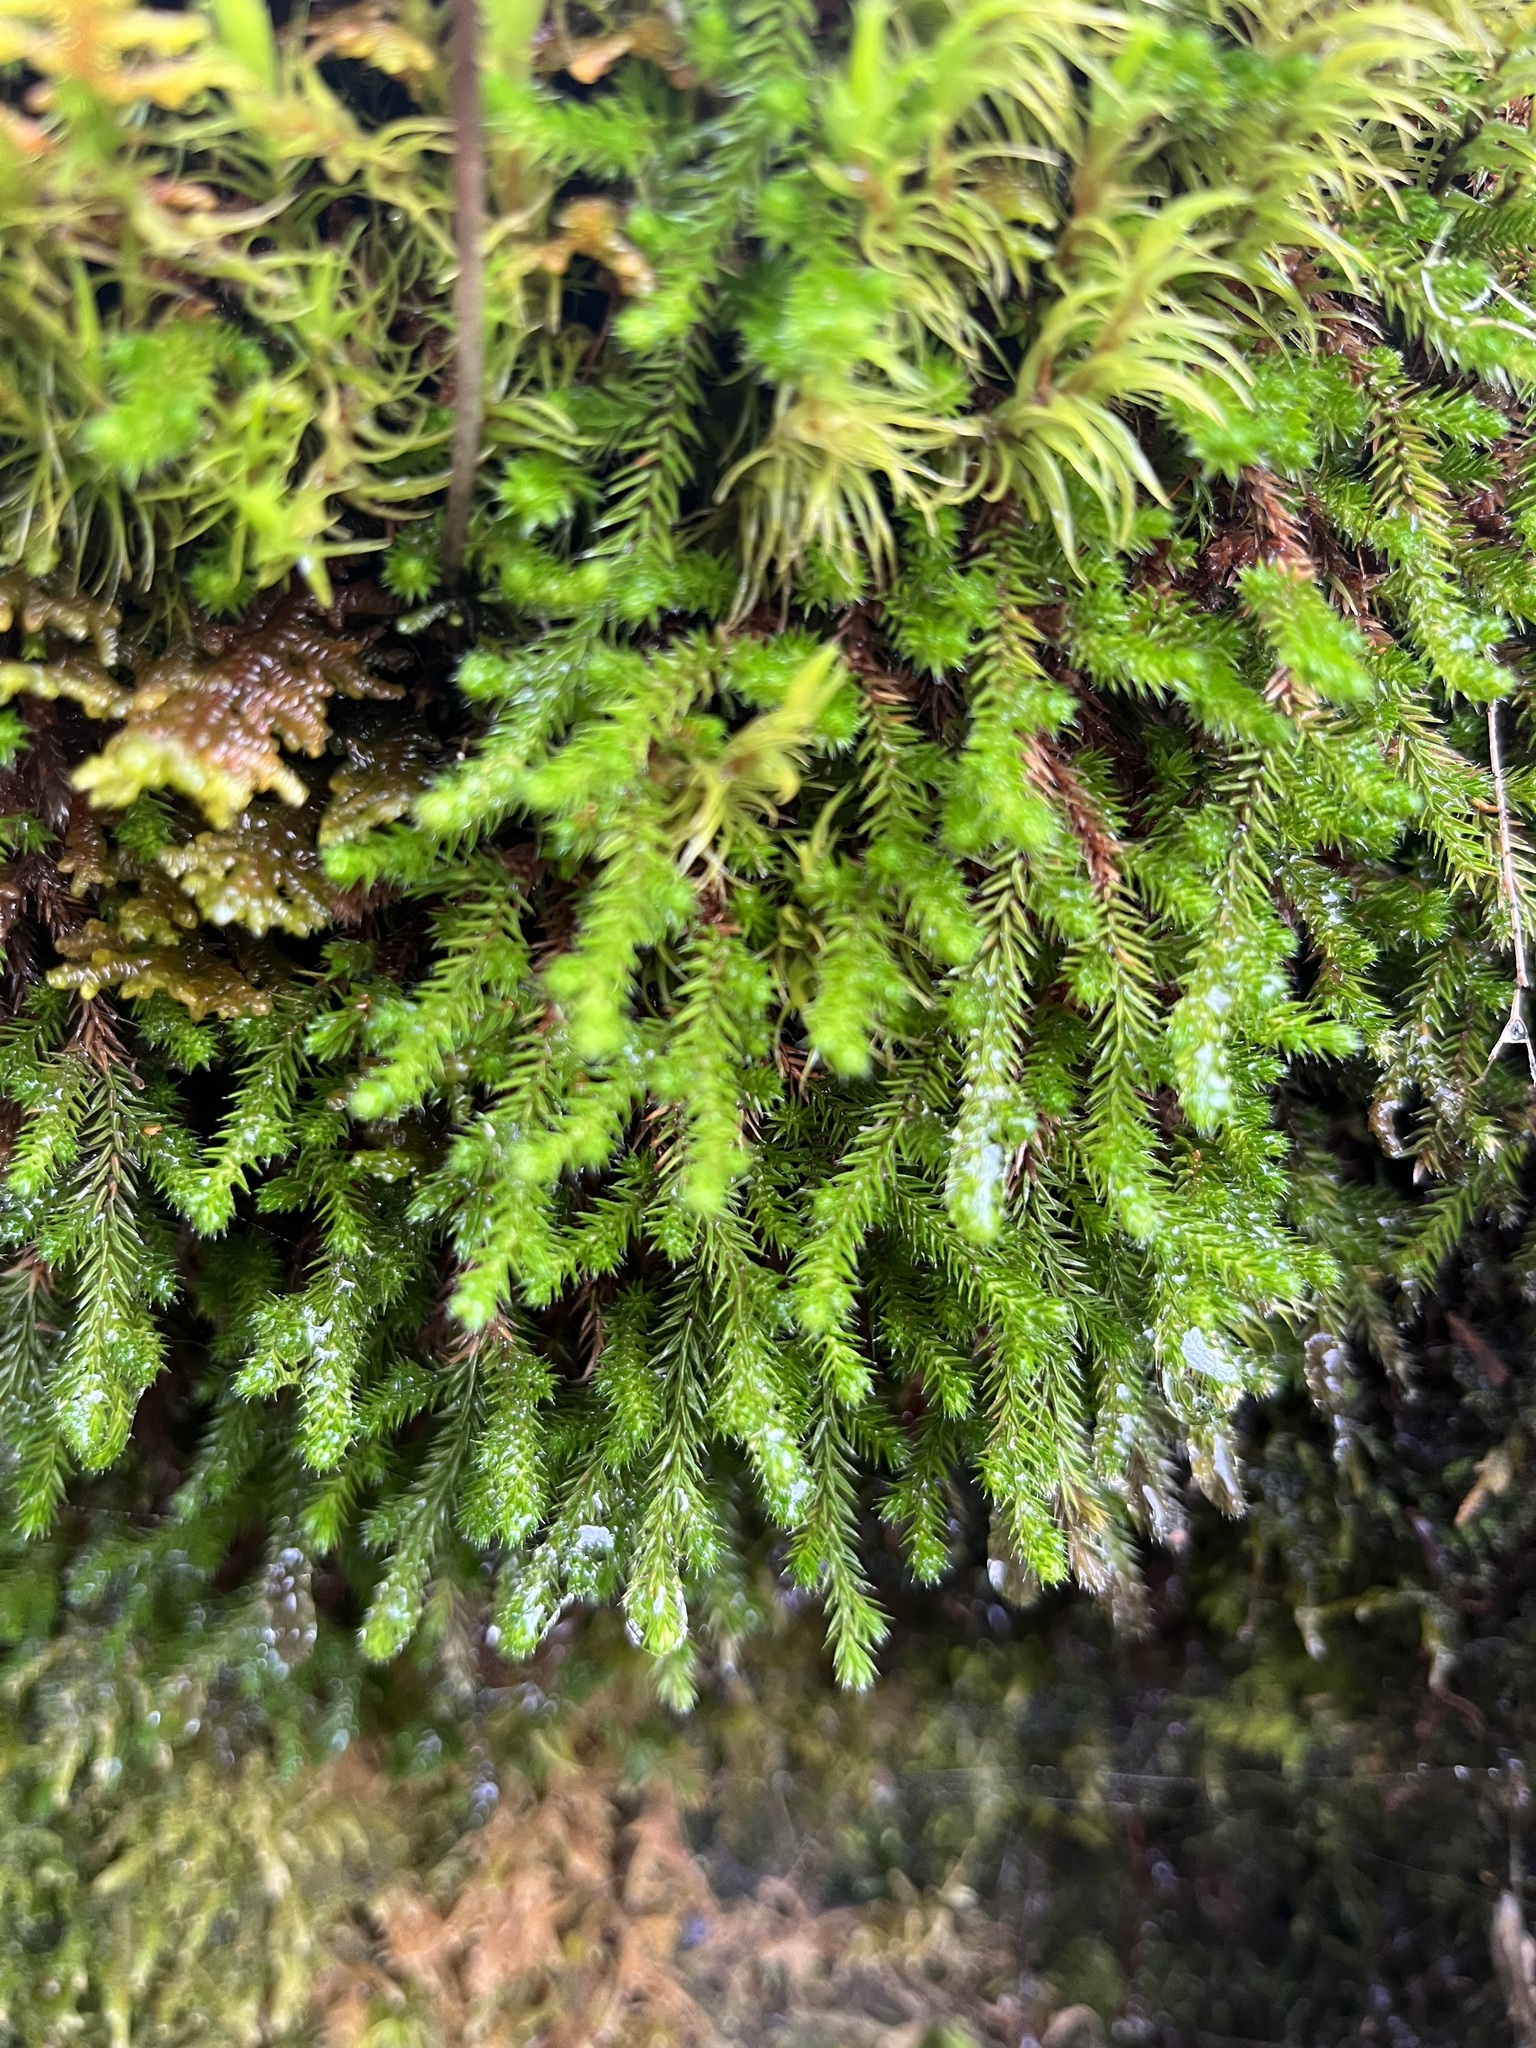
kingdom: Plantae
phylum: Tracheophyta
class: Lycopodiopsida
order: Selaginellales
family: Selaginellaceae
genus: Selaginella
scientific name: Selaginella wallacei
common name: Wallace's selaginella
